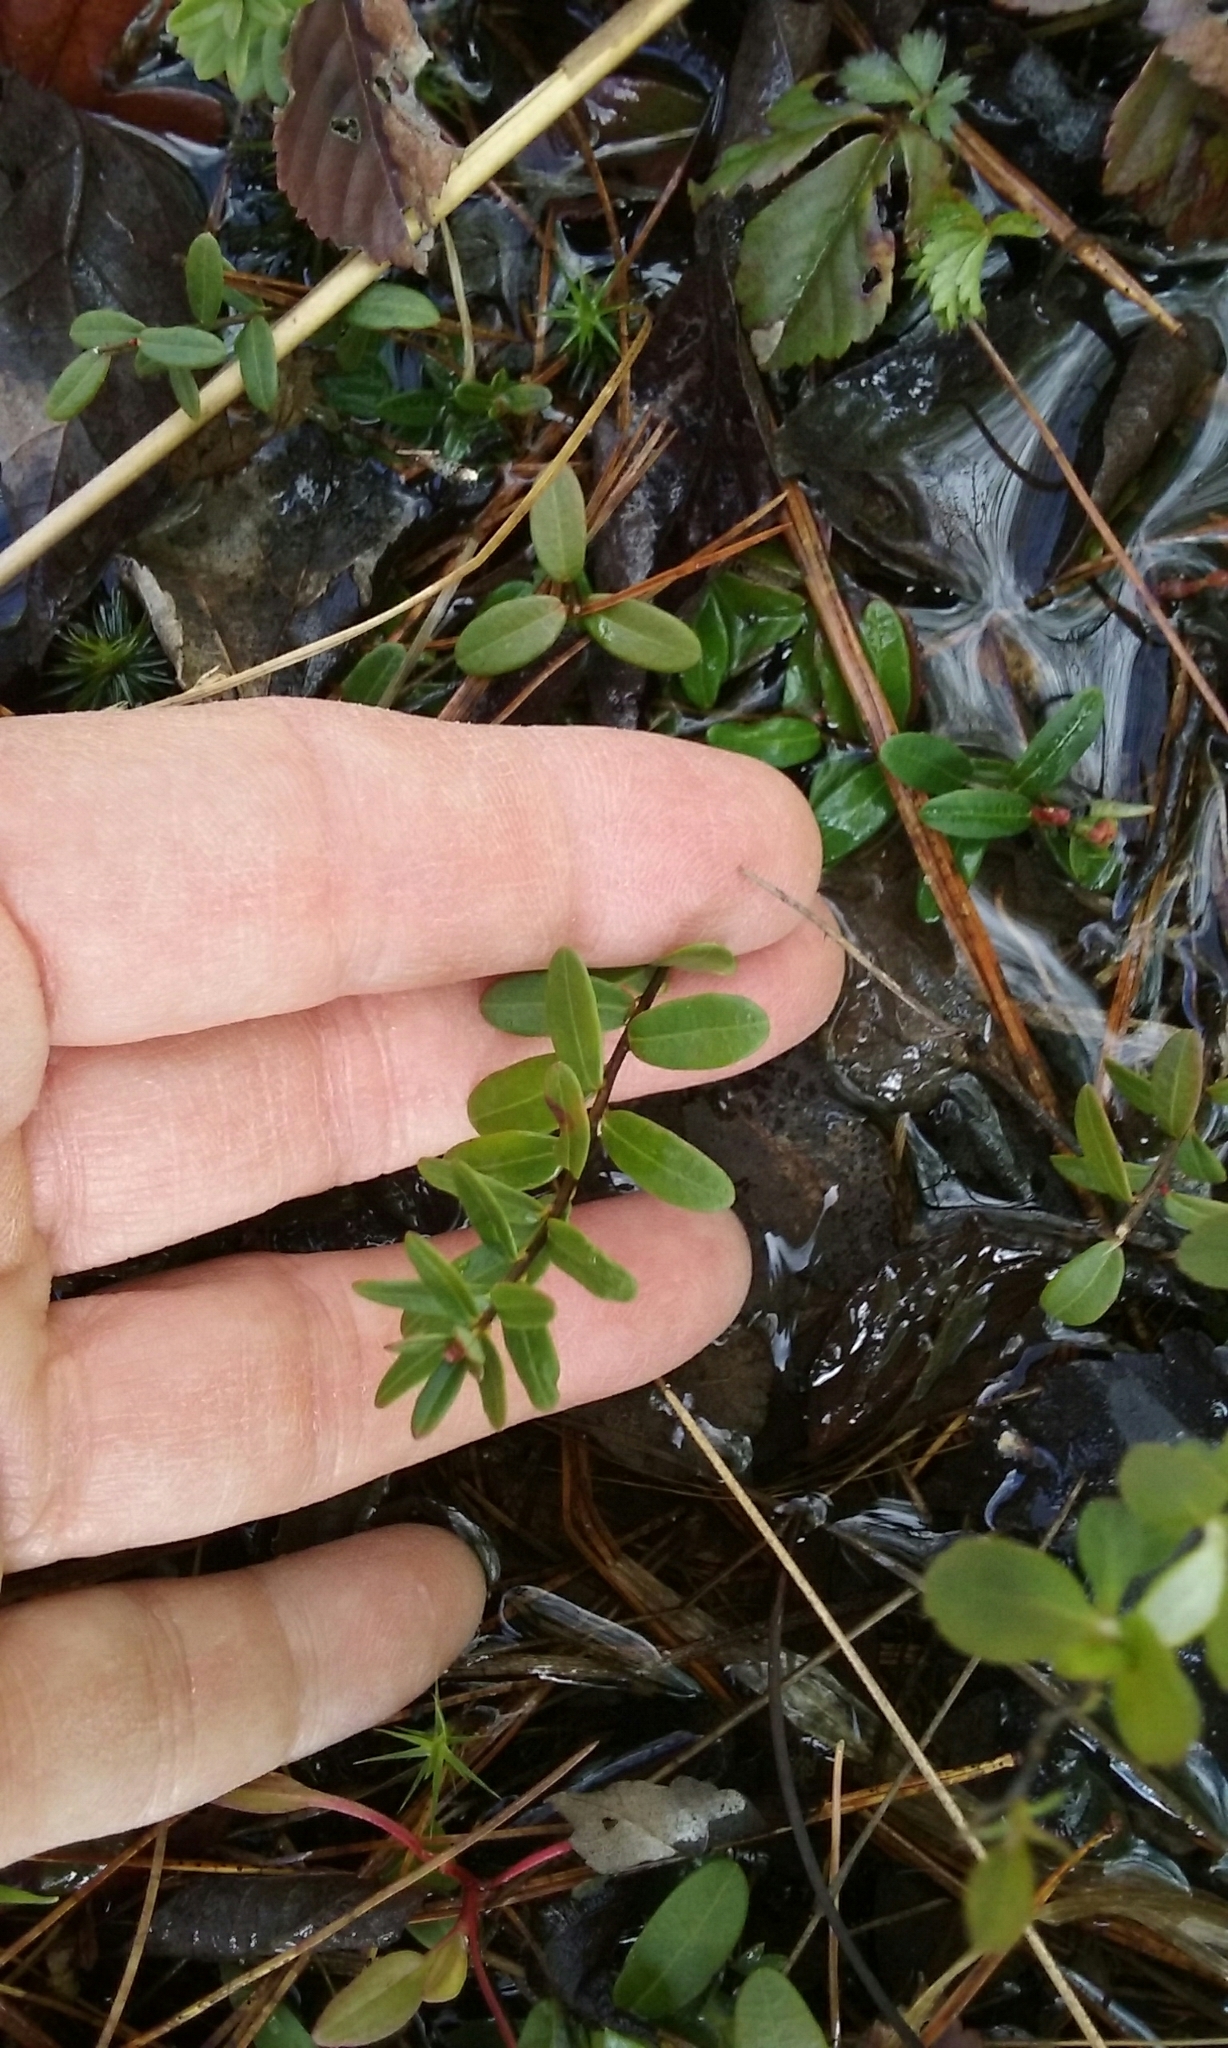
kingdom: Plantae
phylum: Tracheophyta
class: Magnoliopsida
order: Ericales
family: Ericaceae
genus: Vaccinium
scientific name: Vaccinium macrocarpon
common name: American cranberry
